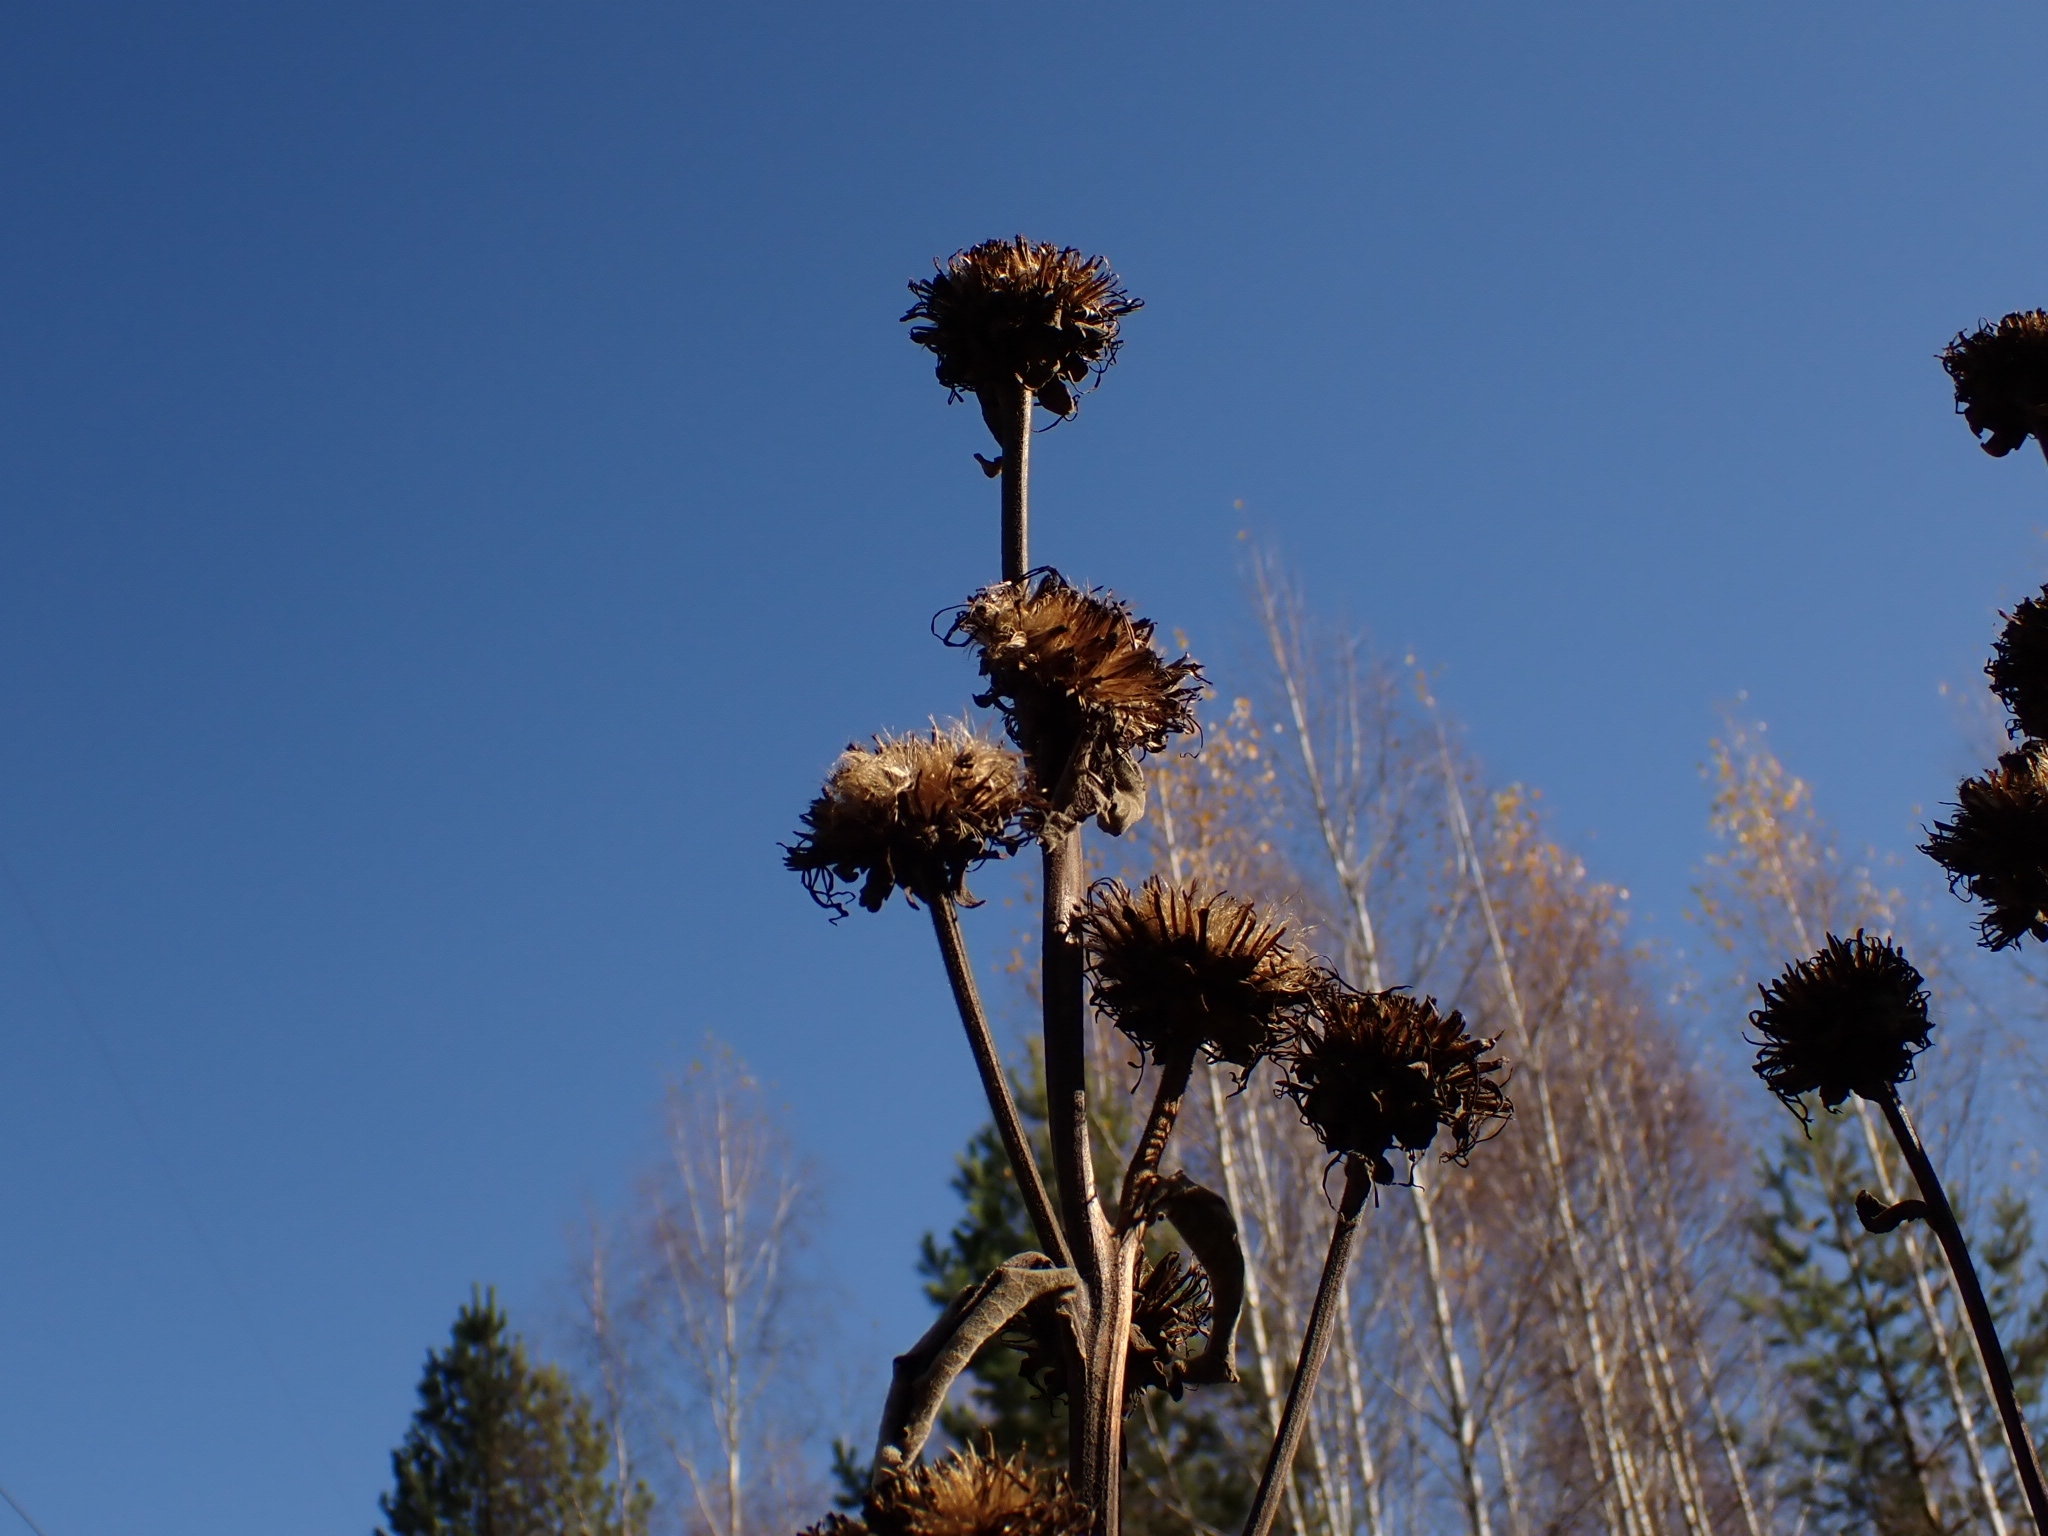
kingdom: Plantae
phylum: Tracheophyta
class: Magnoliopsida
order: Asterales
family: Asteraceae
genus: Inula
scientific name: Inula helenium
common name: Elecampane
